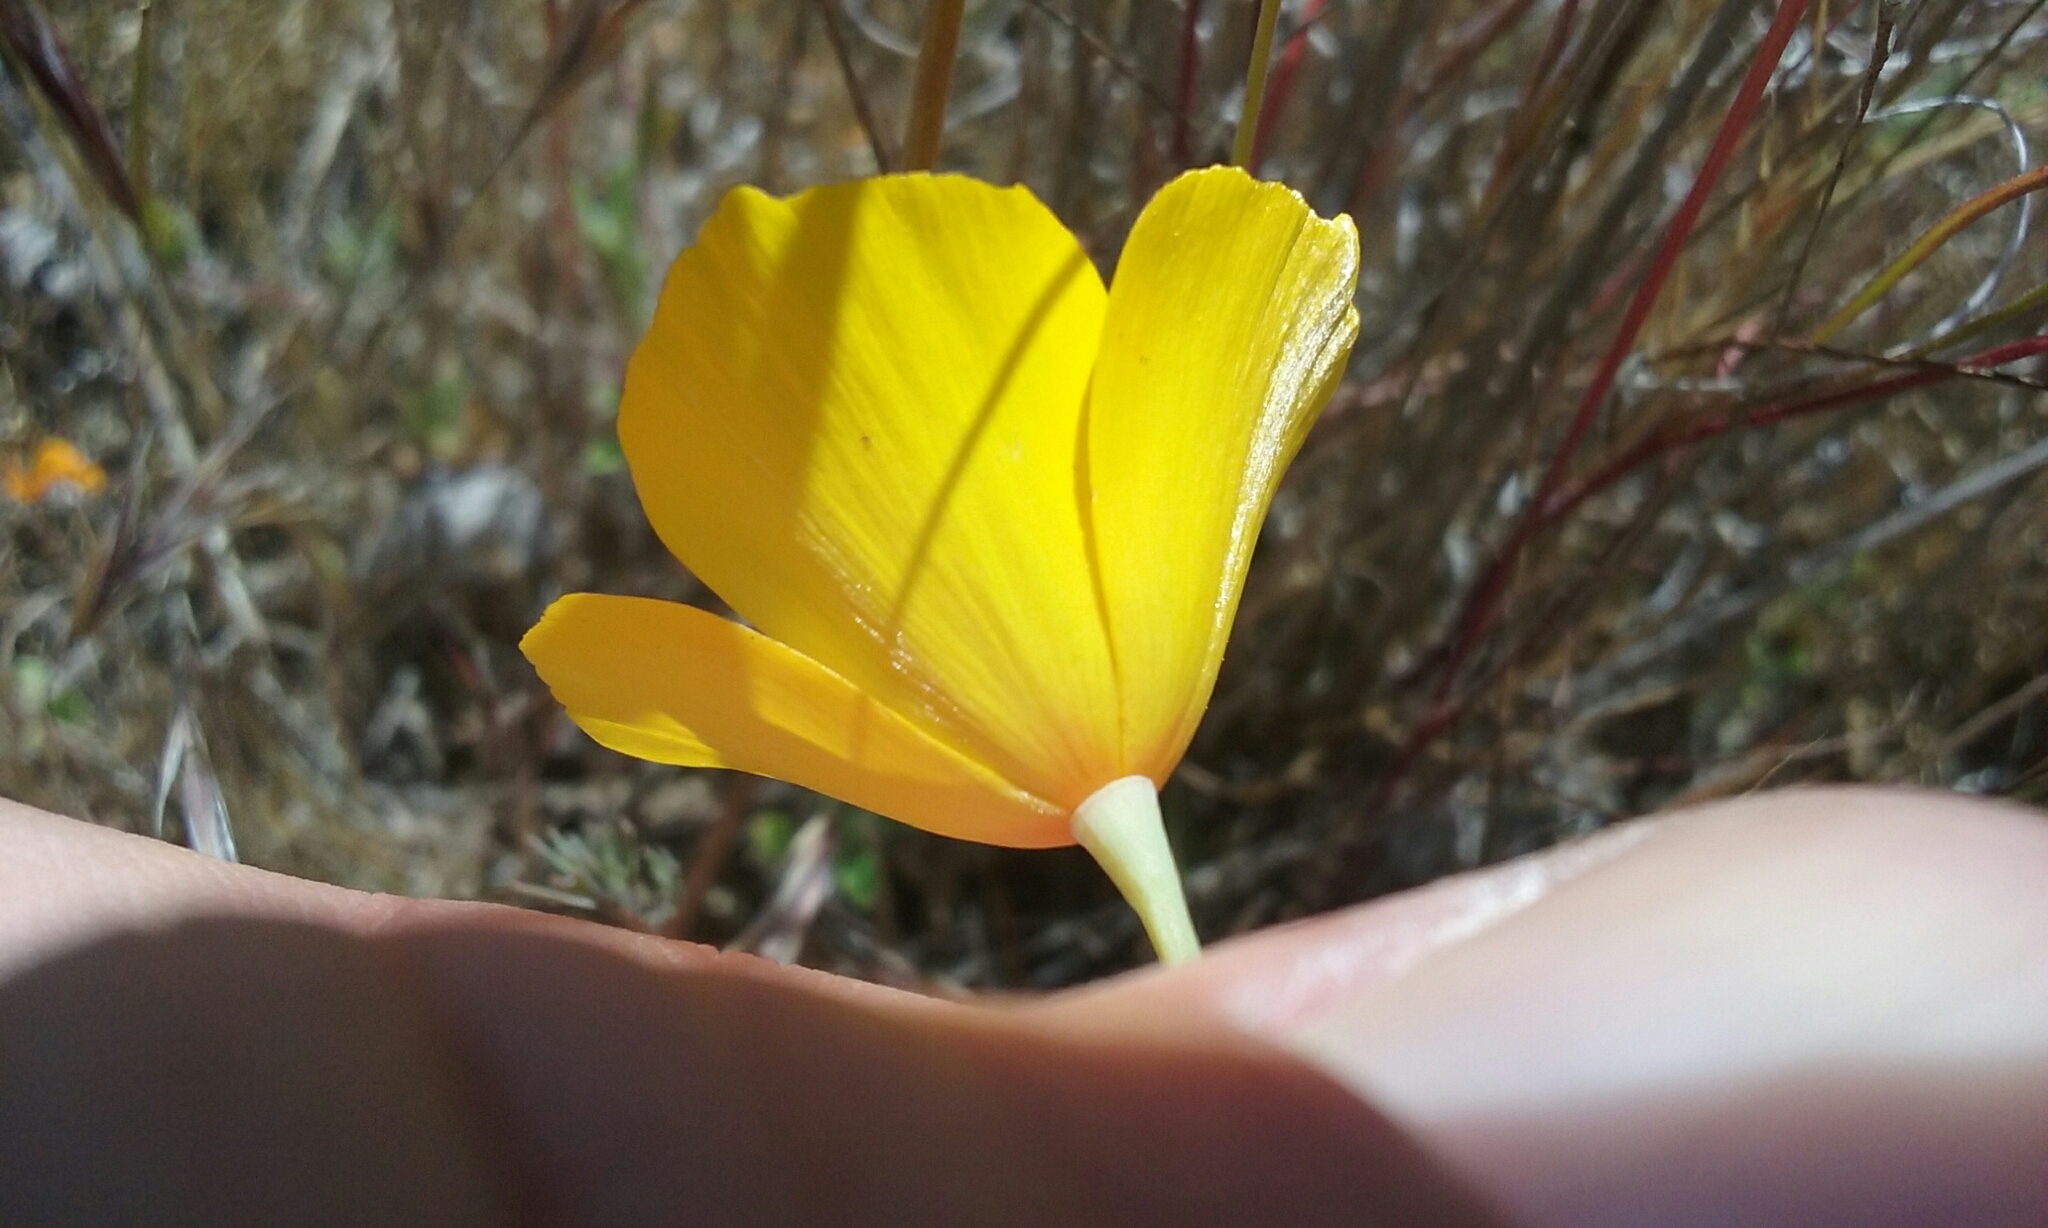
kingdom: Plantae
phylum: Tracheophyta
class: Magnoliopsida
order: Ranunculales
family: Papaveraceae
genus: Eschscholzia
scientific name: Eschscholzia caespitosa
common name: Tufted california-poppy
